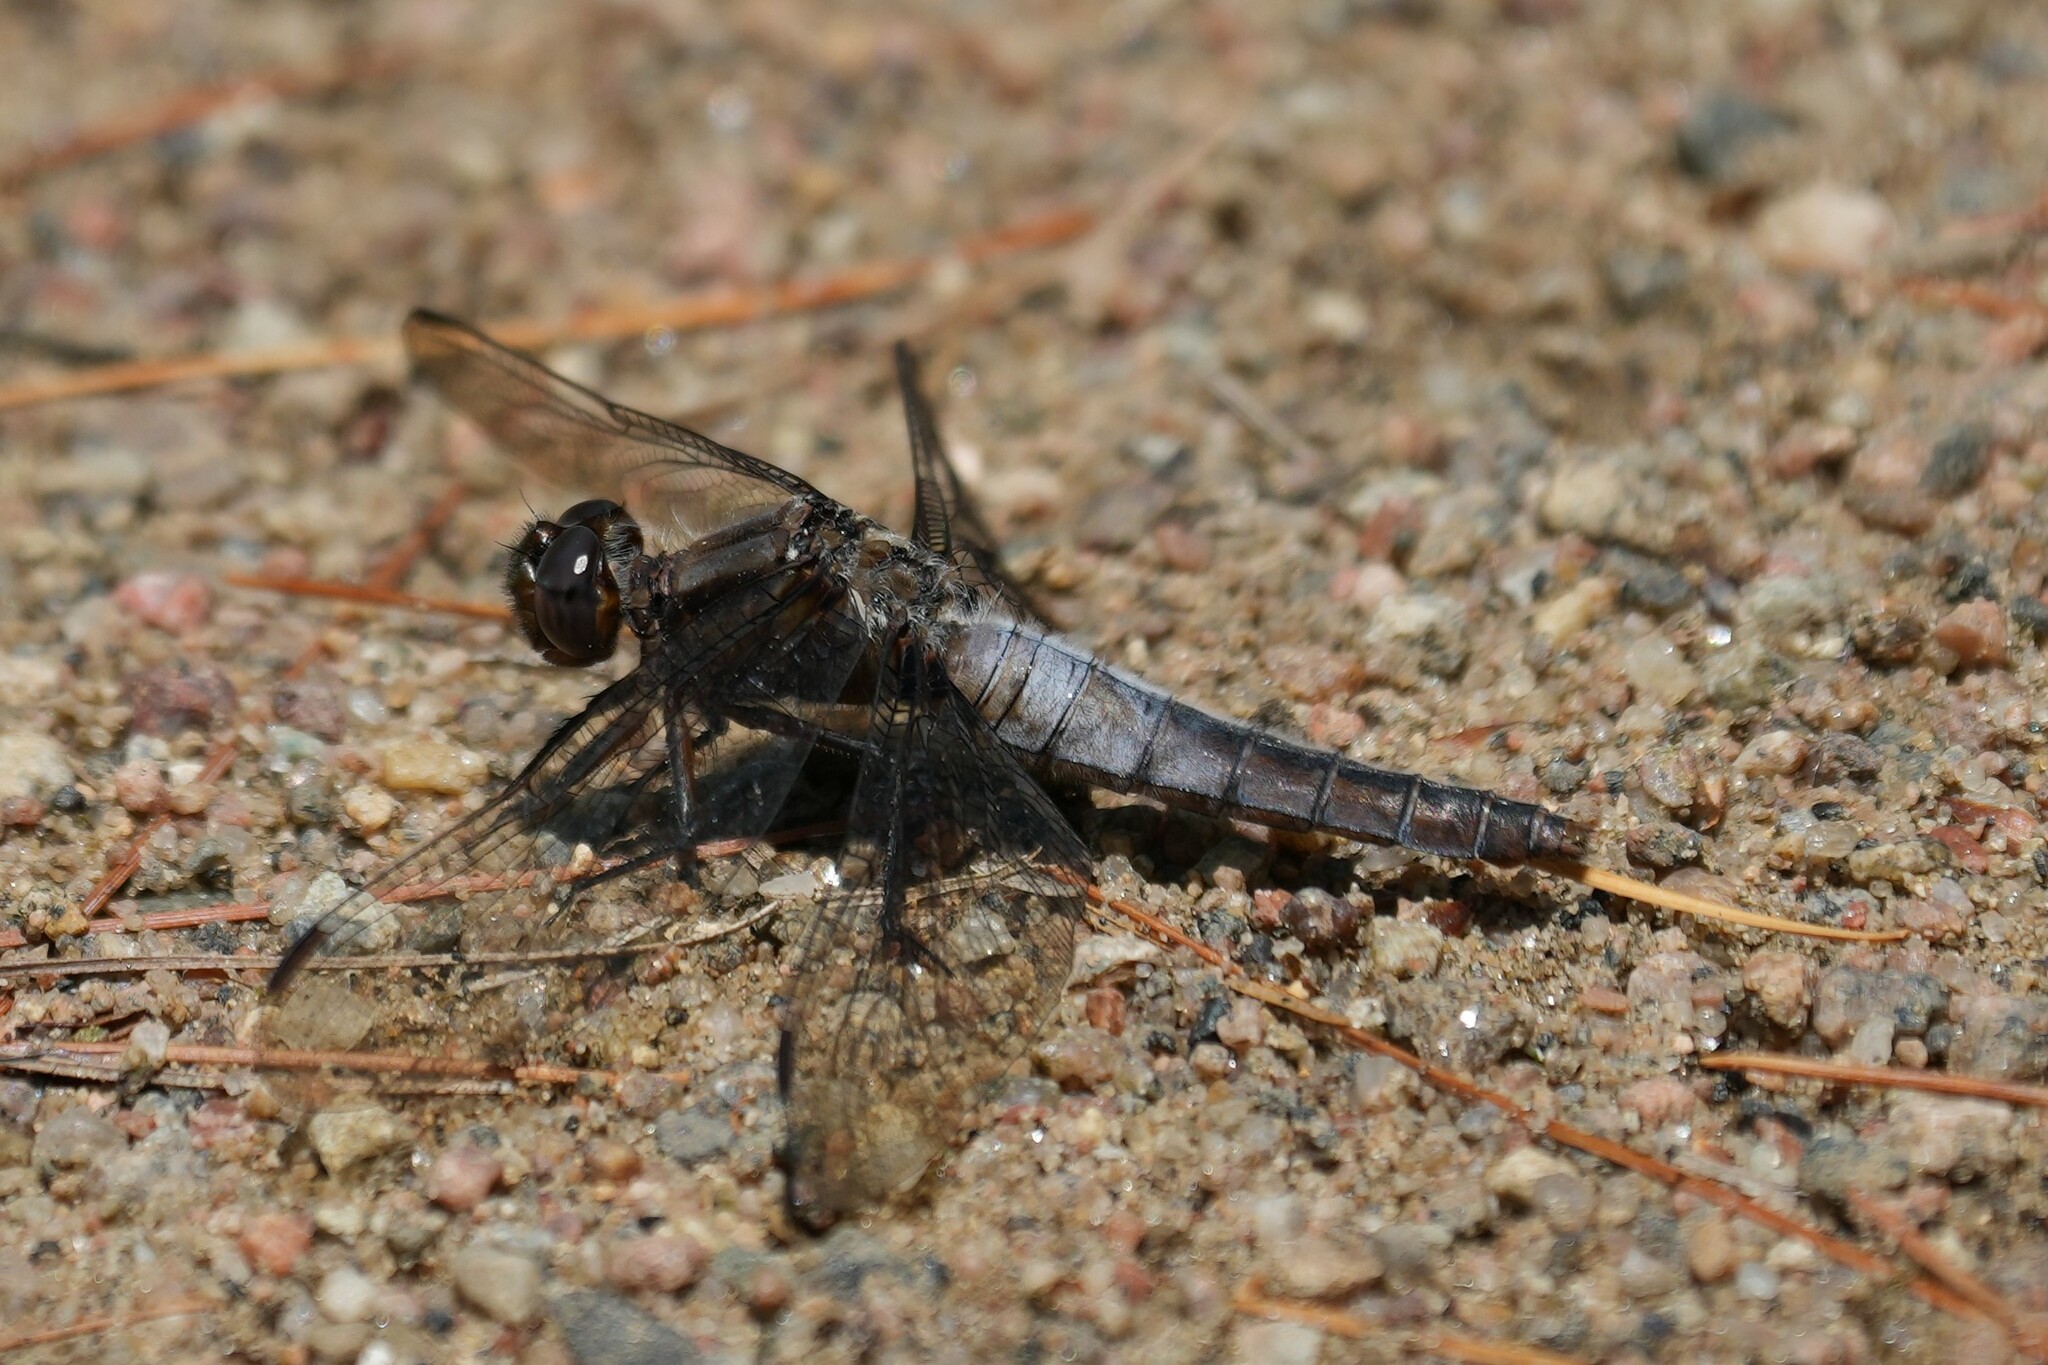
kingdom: Animalia
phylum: Arthropoda
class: Insecta
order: Odonata
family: Libellulidae
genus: Ladona
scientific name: Ladona julia
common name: Chalk-fronted corporal
